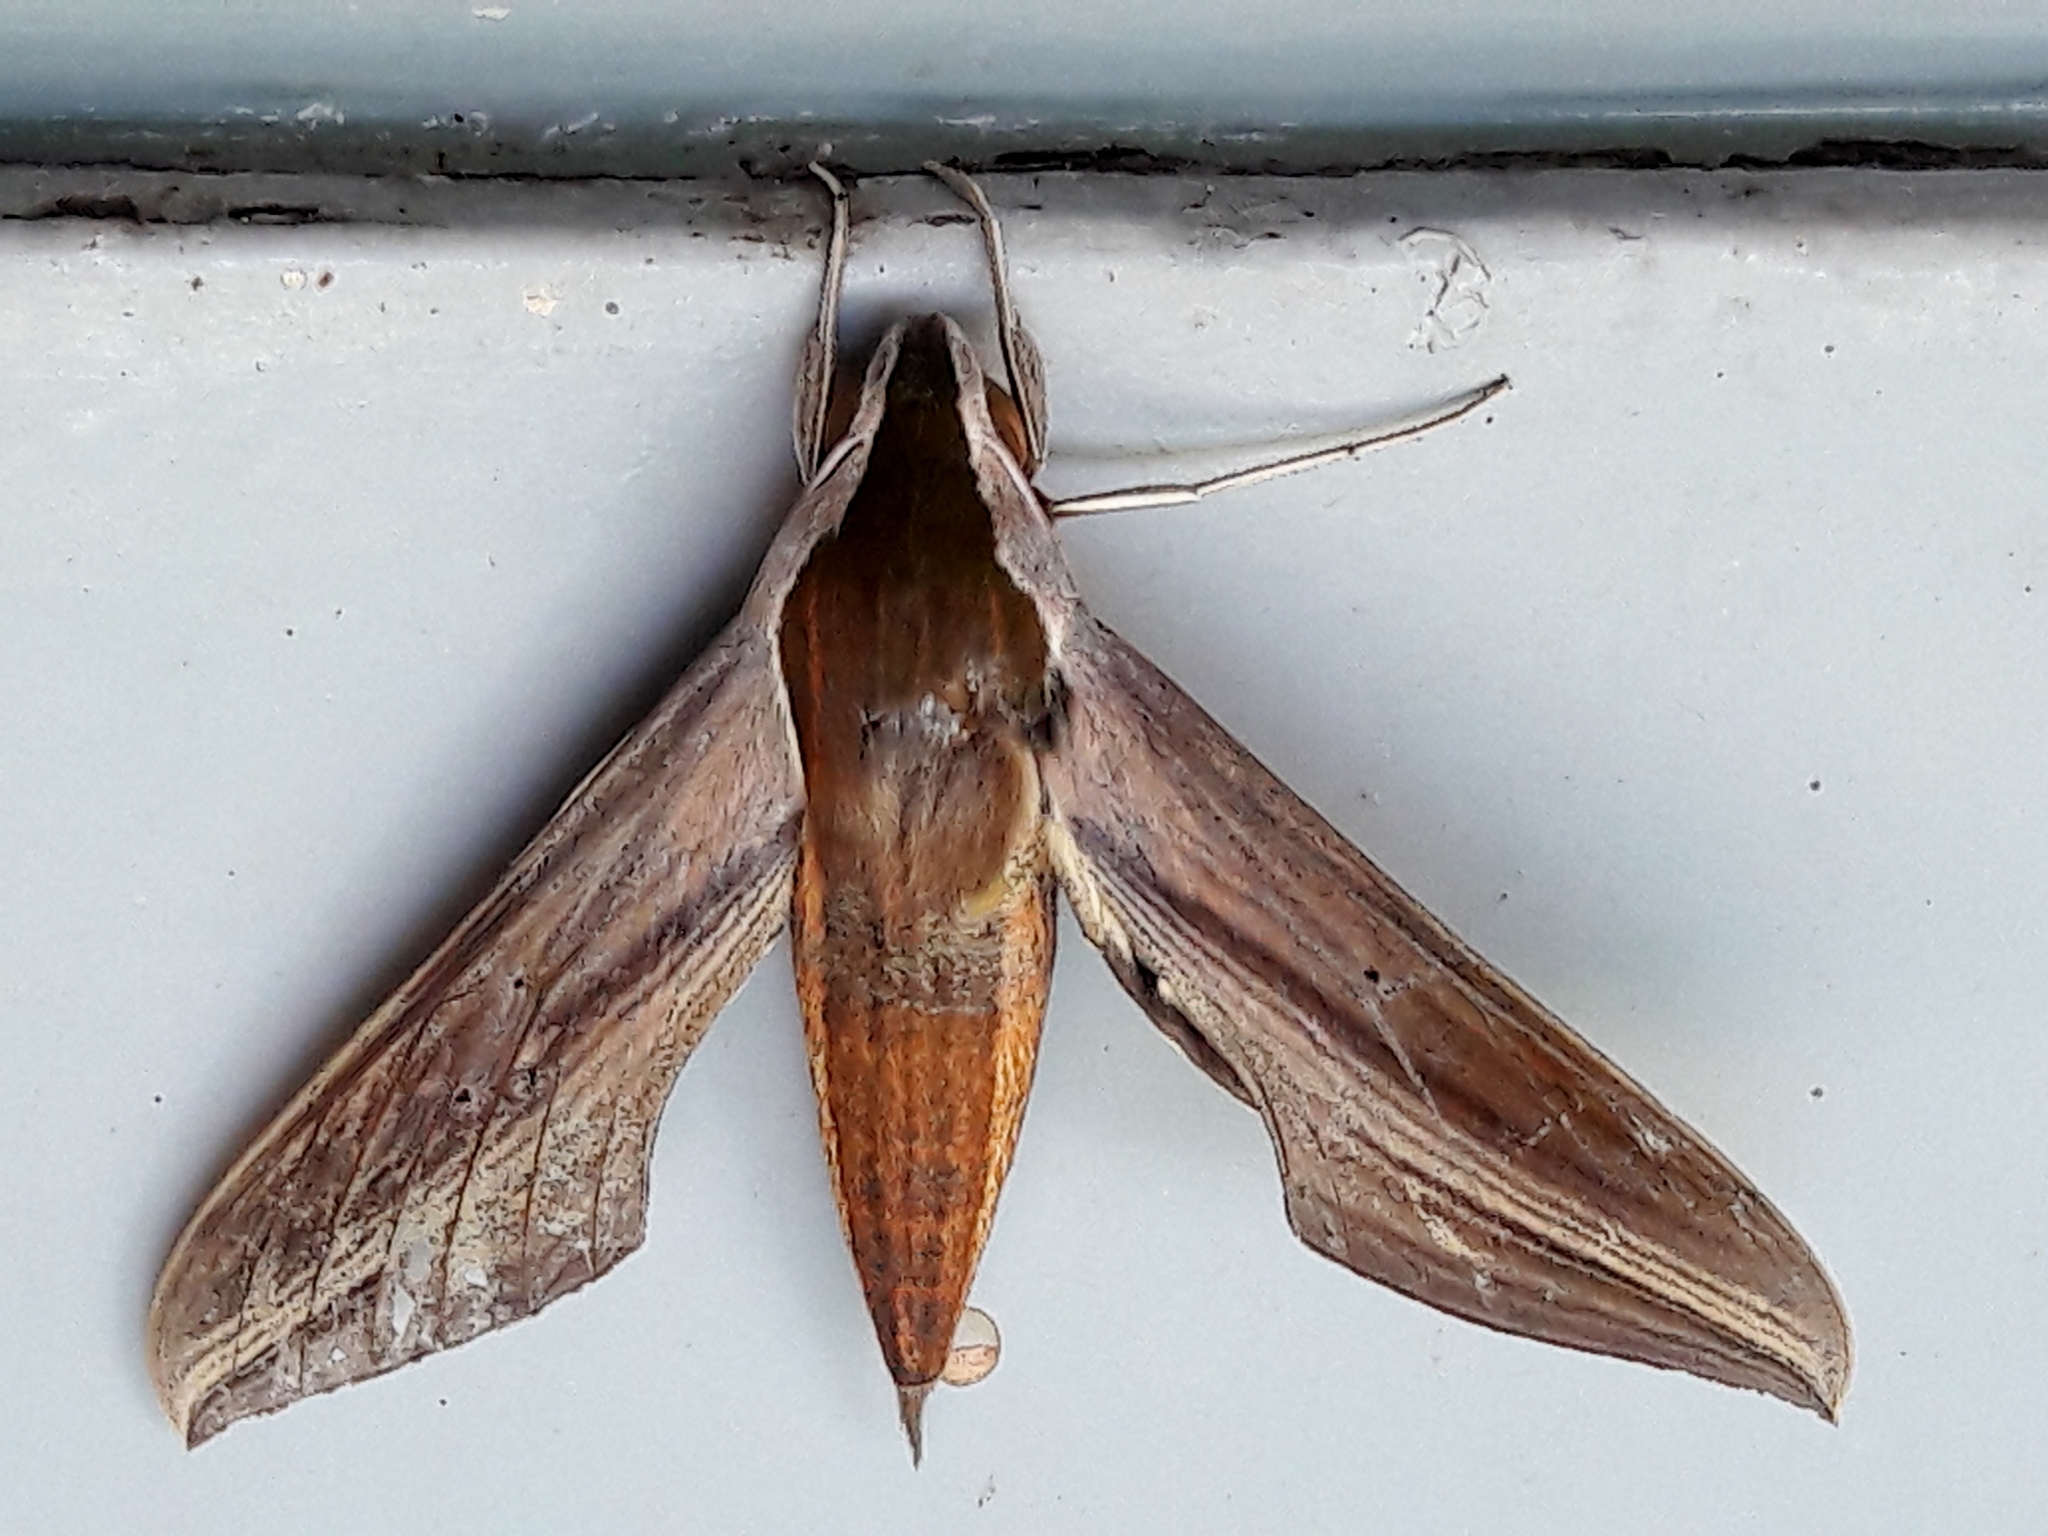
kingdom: Animalia
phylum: Arthropoda
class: Insecta
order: Lepidoptera
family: Sphingidae
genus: Xylophanes
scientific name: Xylophanes tersa
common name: Tersa sphinx
